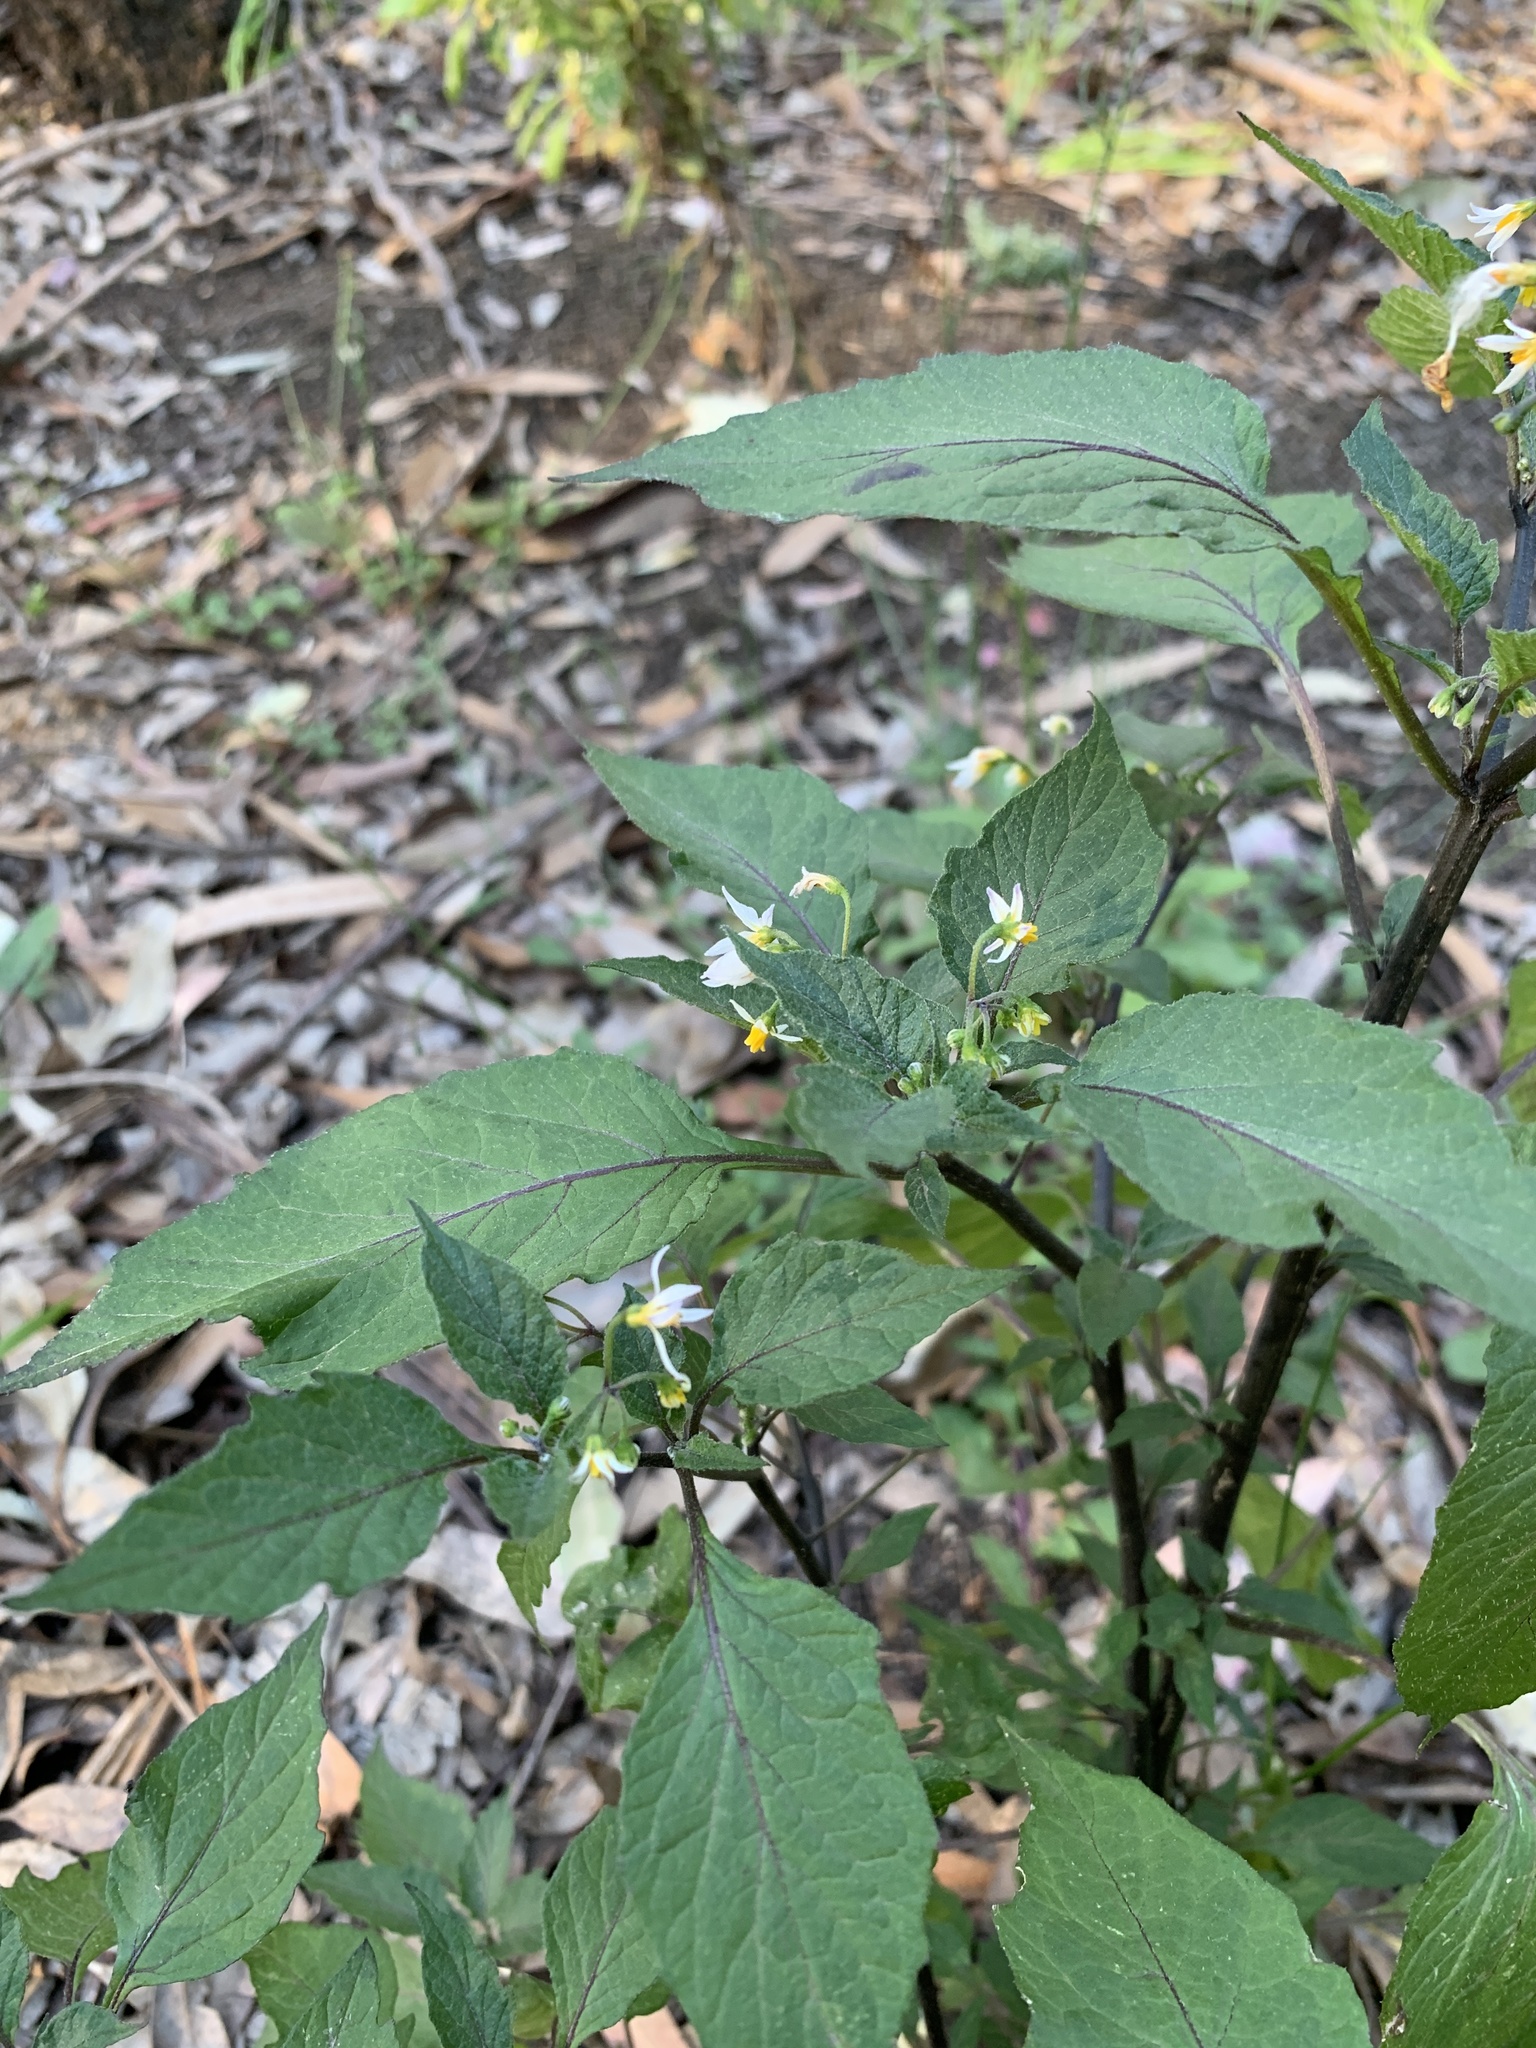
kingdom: Plantae
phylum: Tracheophyta
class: Magnoliopsida
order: Solanales
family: Solanaceae
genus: Solanum
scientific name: Solanum nigrum
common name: Black nightshade
